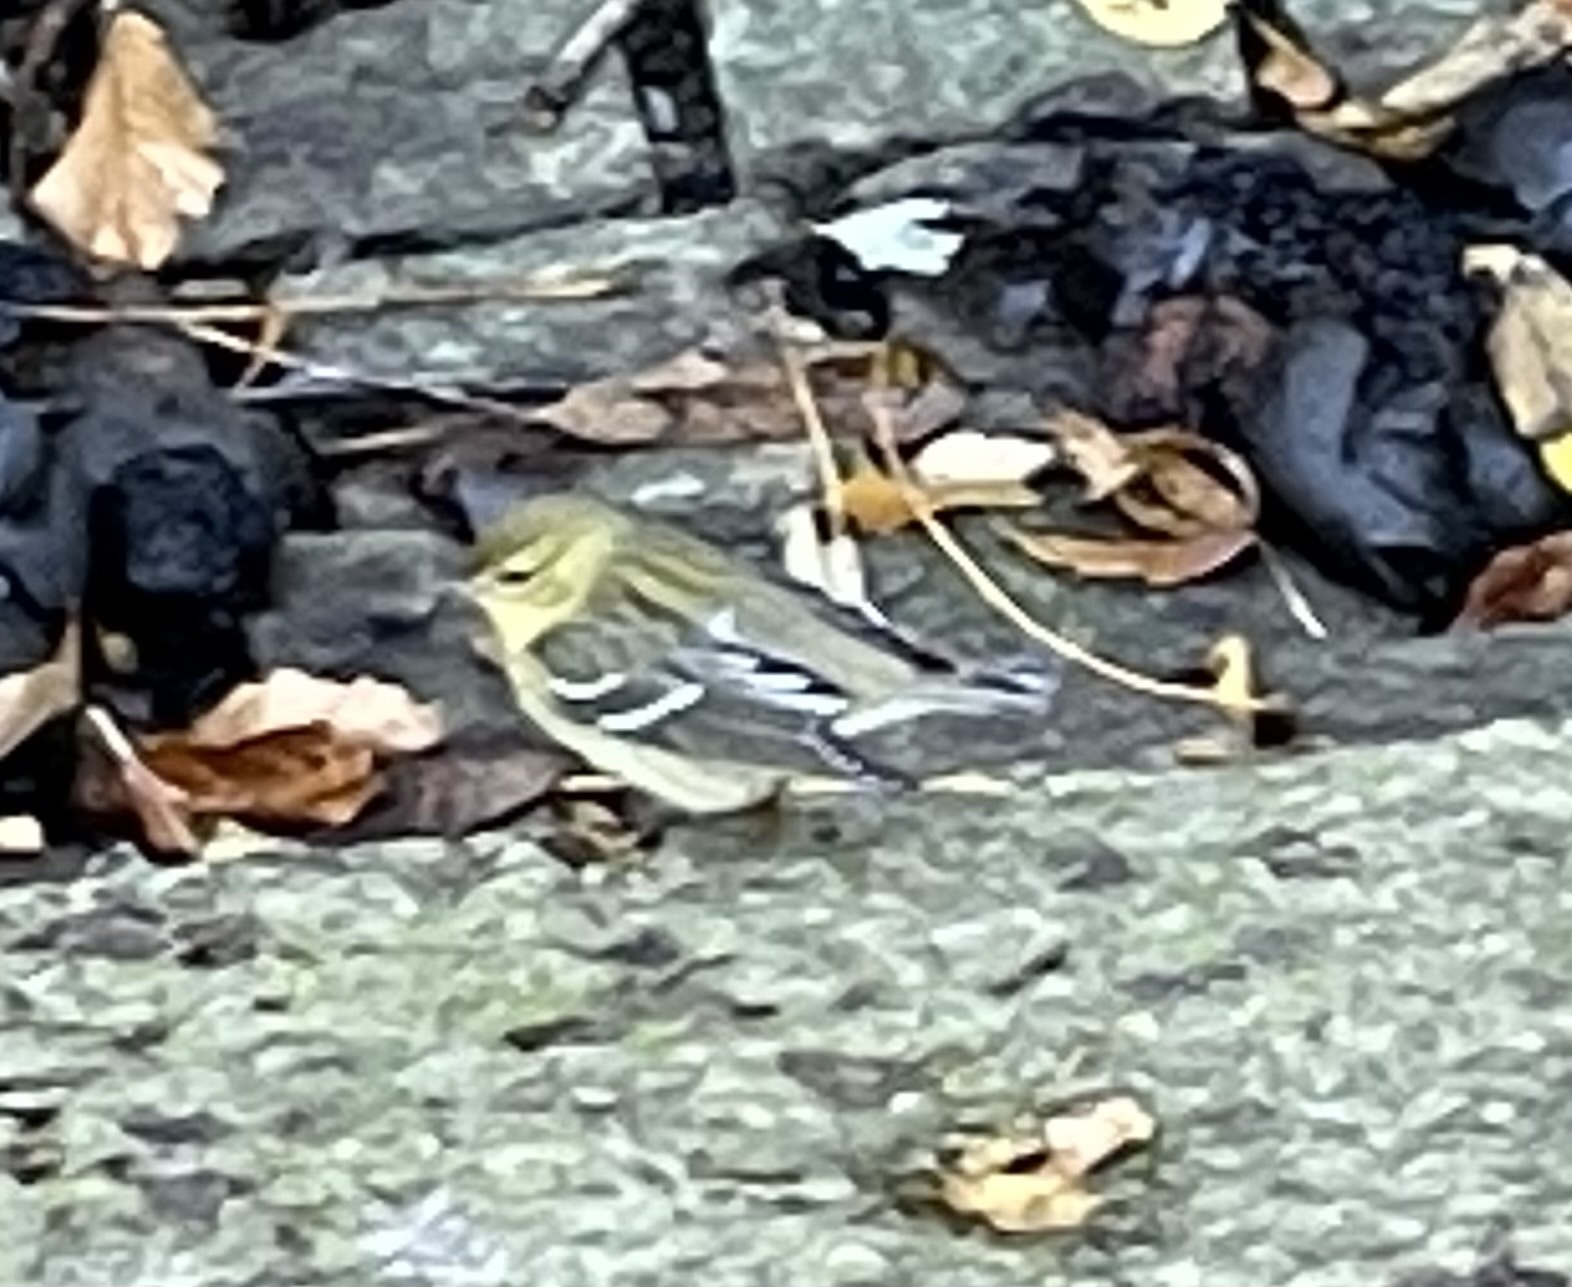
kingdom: Animalia
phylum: Chordata
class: Aves
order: Passeriformes
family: Parulidae
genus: Setophaga
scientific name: Setophaga striata
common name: Blackpoll warbler
